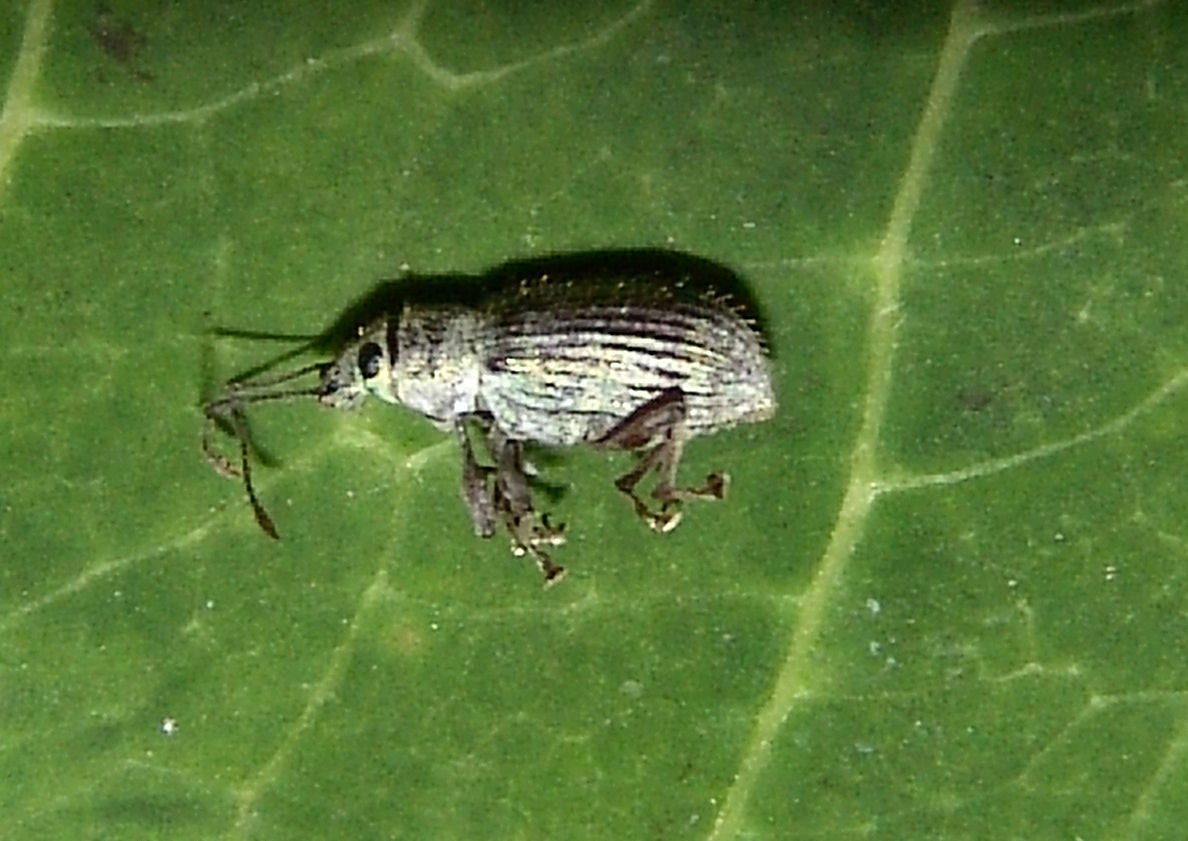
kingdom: Animalia
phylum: Arthropoda
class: Insecta
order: Coleoptera
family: Curculionidae
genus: Cyrtepistomus
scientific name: Cyrtepistomus castaneus
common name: Weevil
